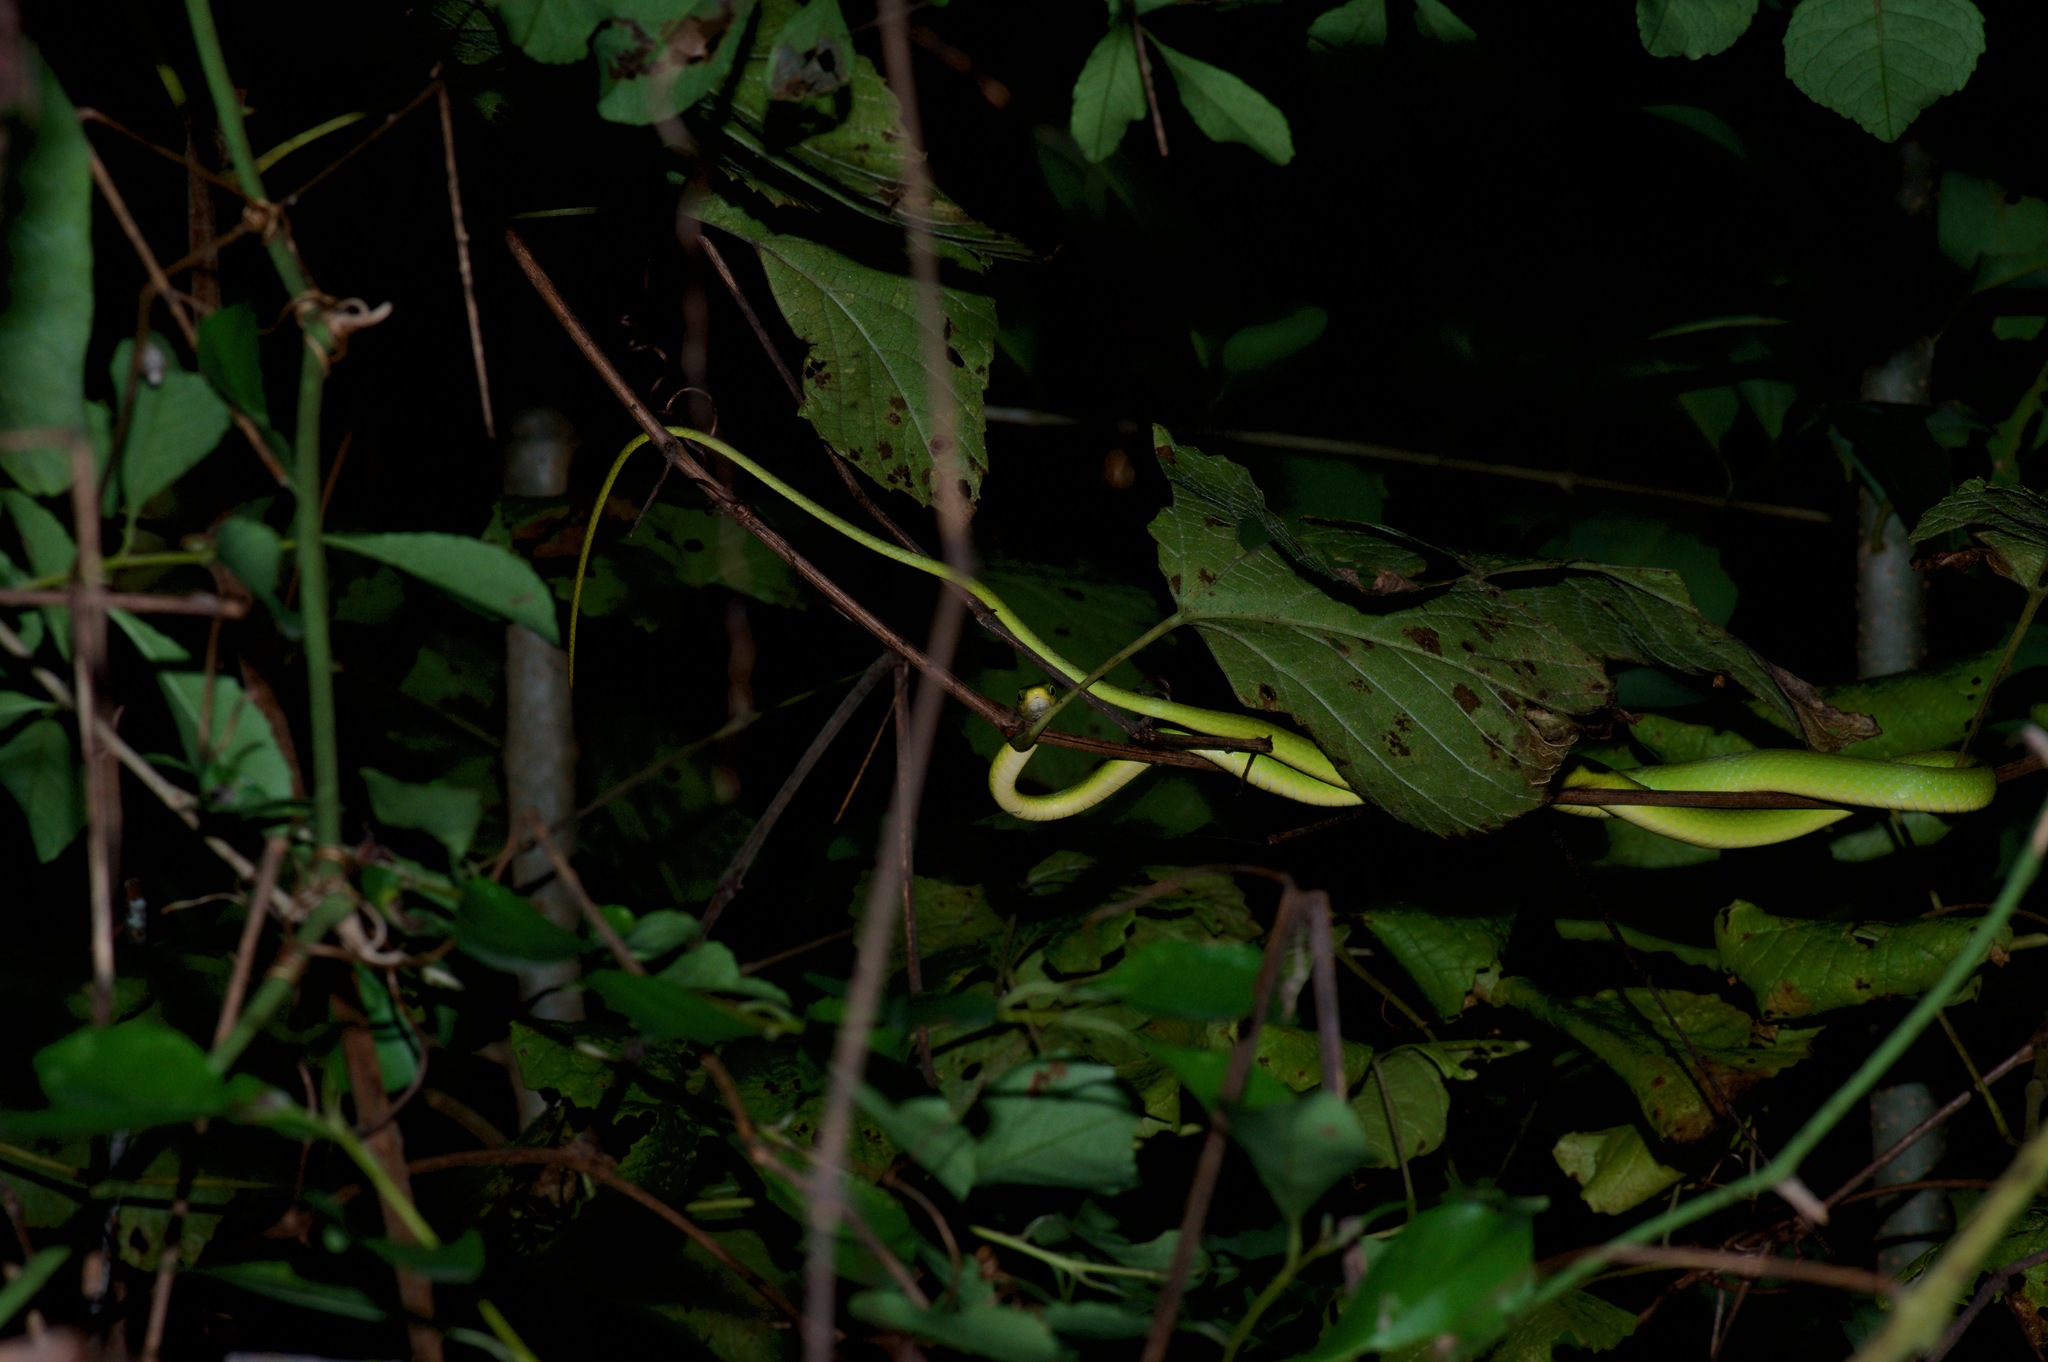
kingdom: Animalia
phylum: Chordata
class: Squamata
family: Colubridae
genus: Opheodrys
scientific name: Opheodrys aestivus
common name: Rough greensnake
